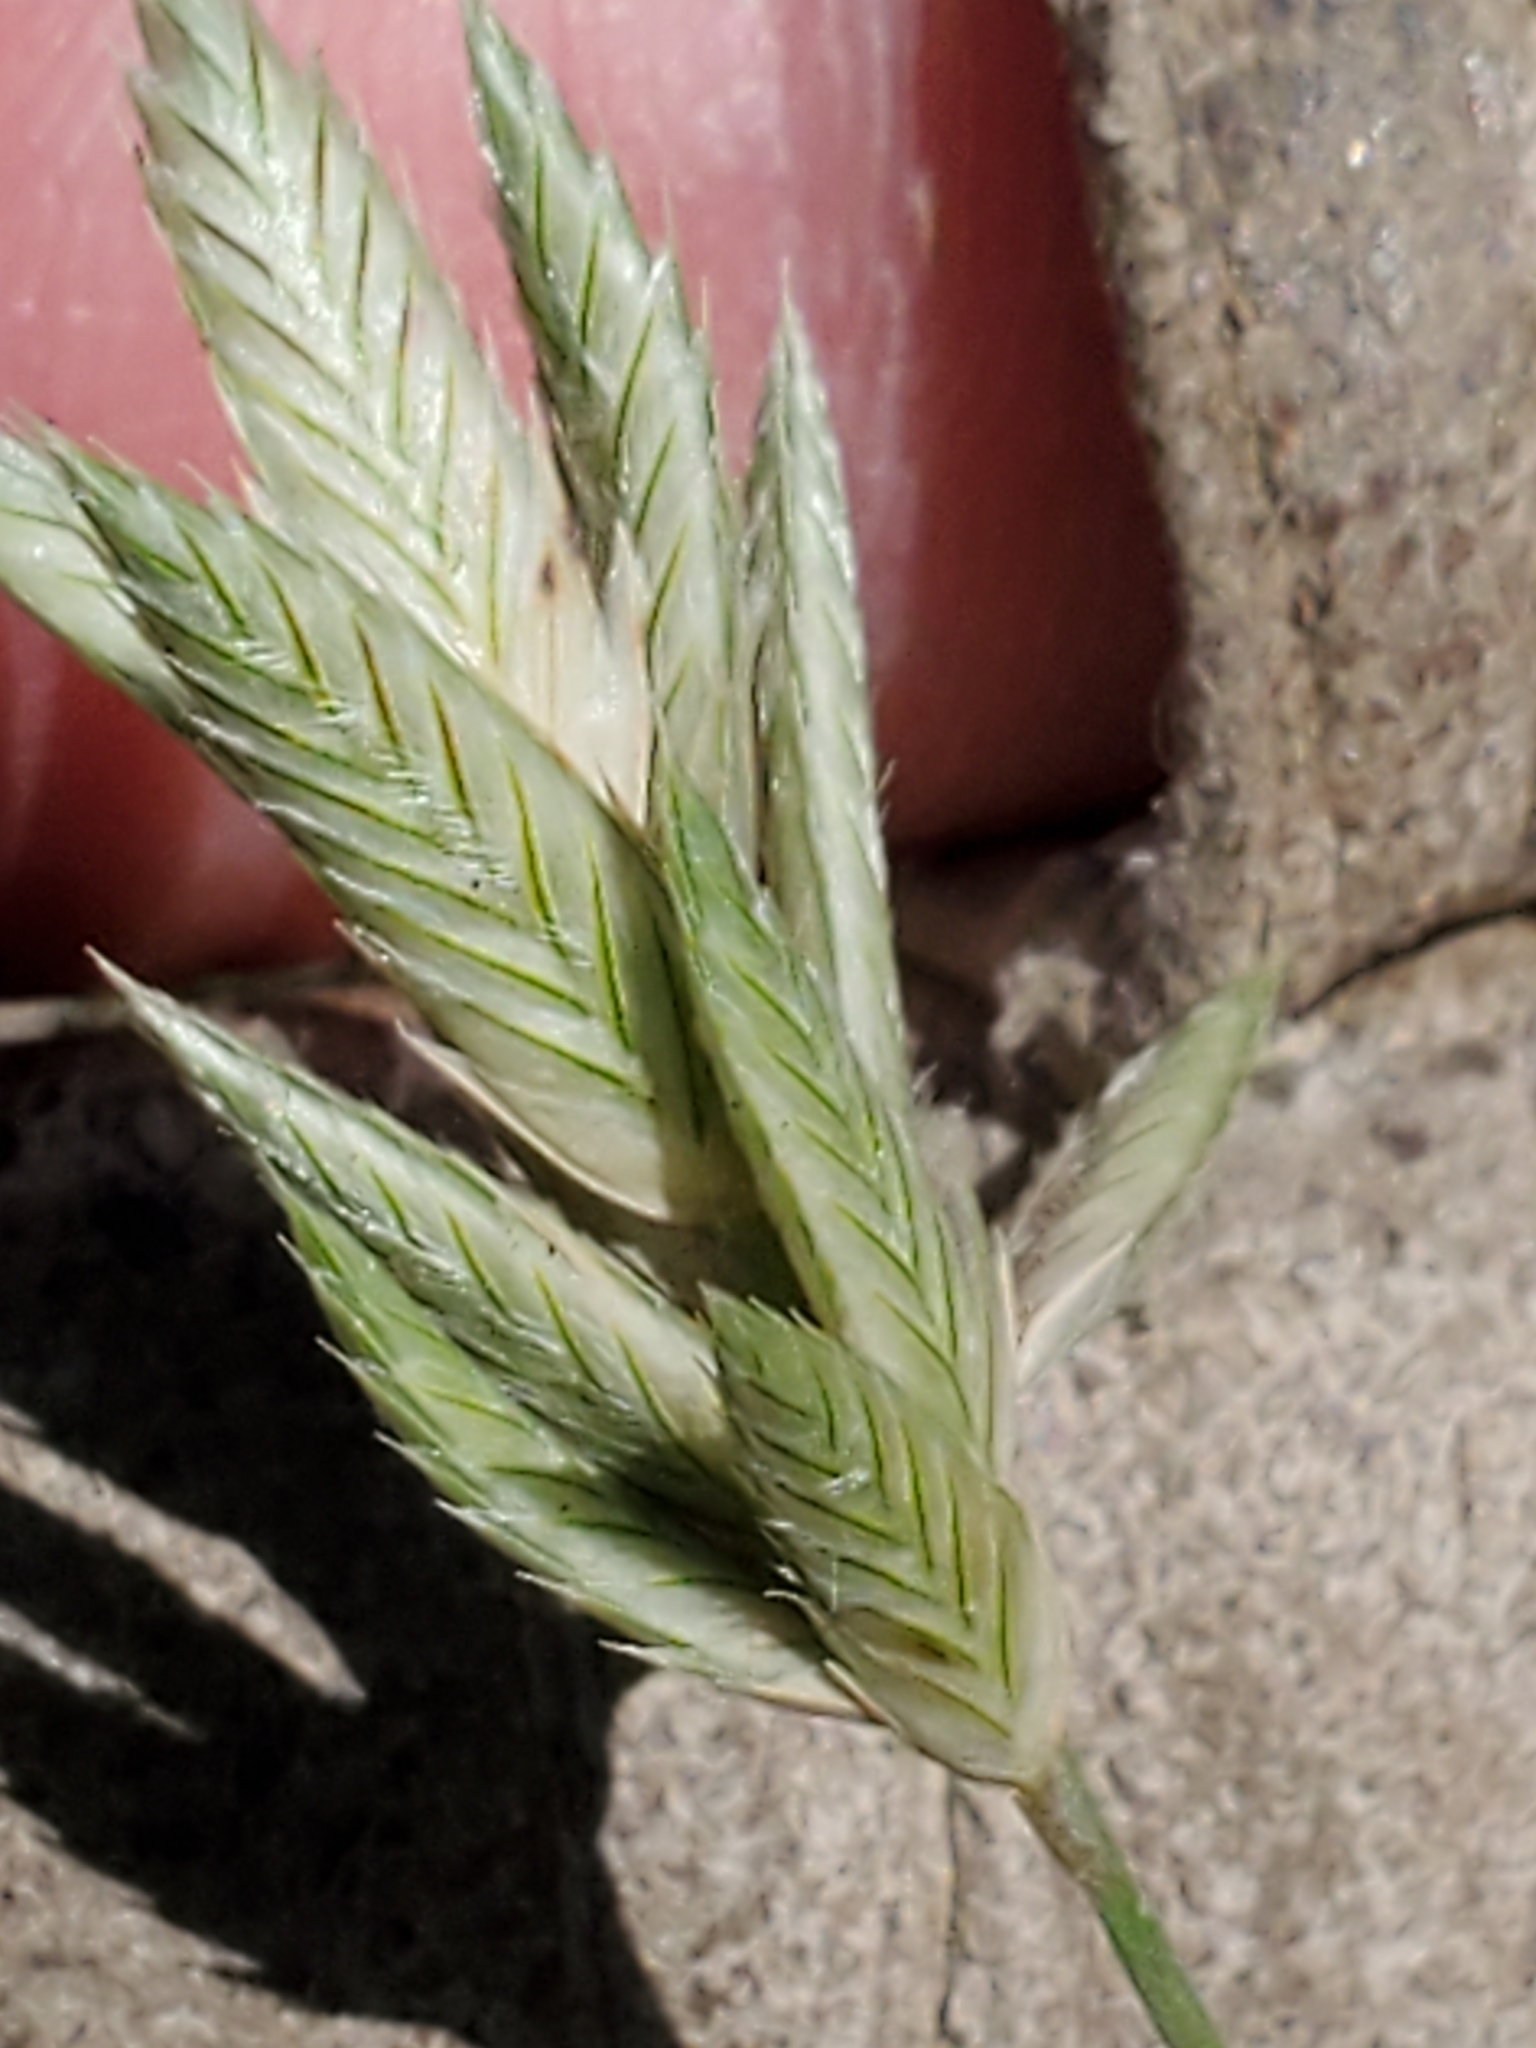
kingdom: Plantae
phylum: Tracheophyta
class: Liliopsida
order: Poales
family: Poaceae
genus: Erioneuron
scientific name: Erioneuron pilosum
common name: Hairy woolly grass
